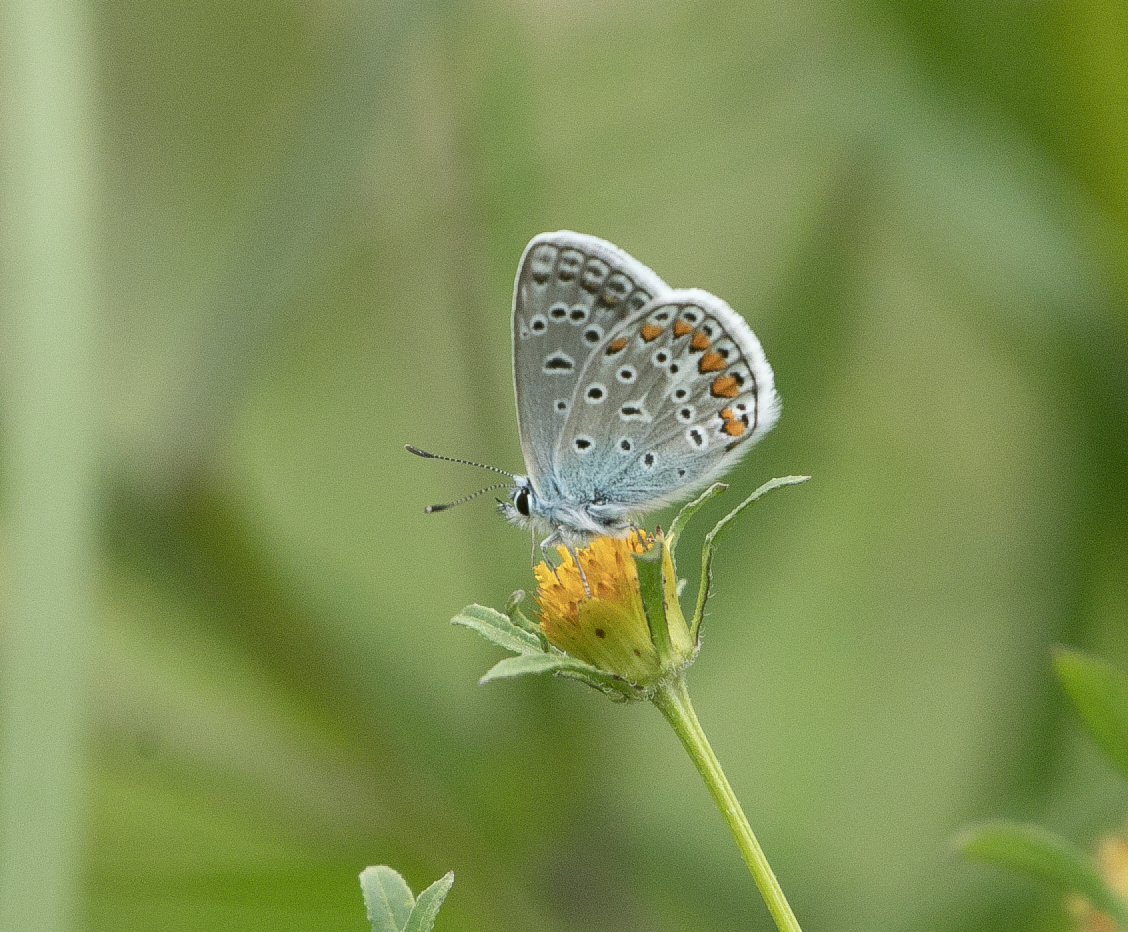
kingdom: Animalia
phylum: Arthropoda
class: Insecta
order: Lepidoptera
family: Lycaenidae
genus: Polyommatus
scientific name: Polyommatus icarus
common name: Common blue
